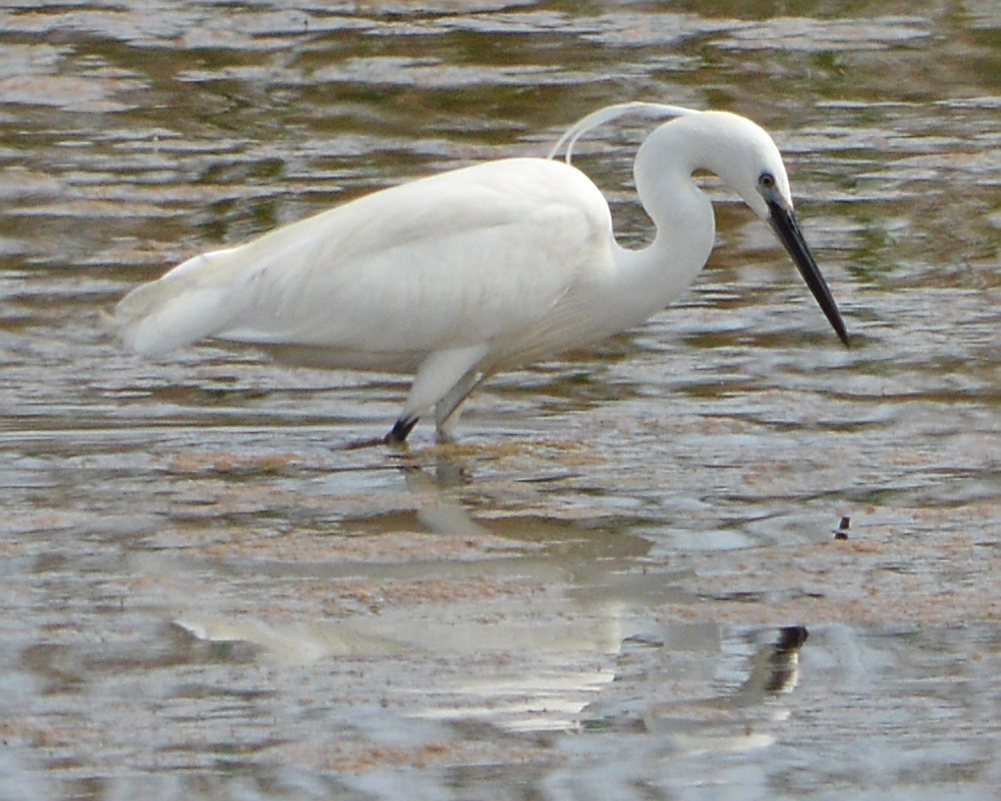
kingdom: Animalia
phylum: Chordata
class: Aves
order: Pelecaniformes
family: Ardeidae
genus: Egretta
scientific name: Egretta garzetta
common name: Little egret
